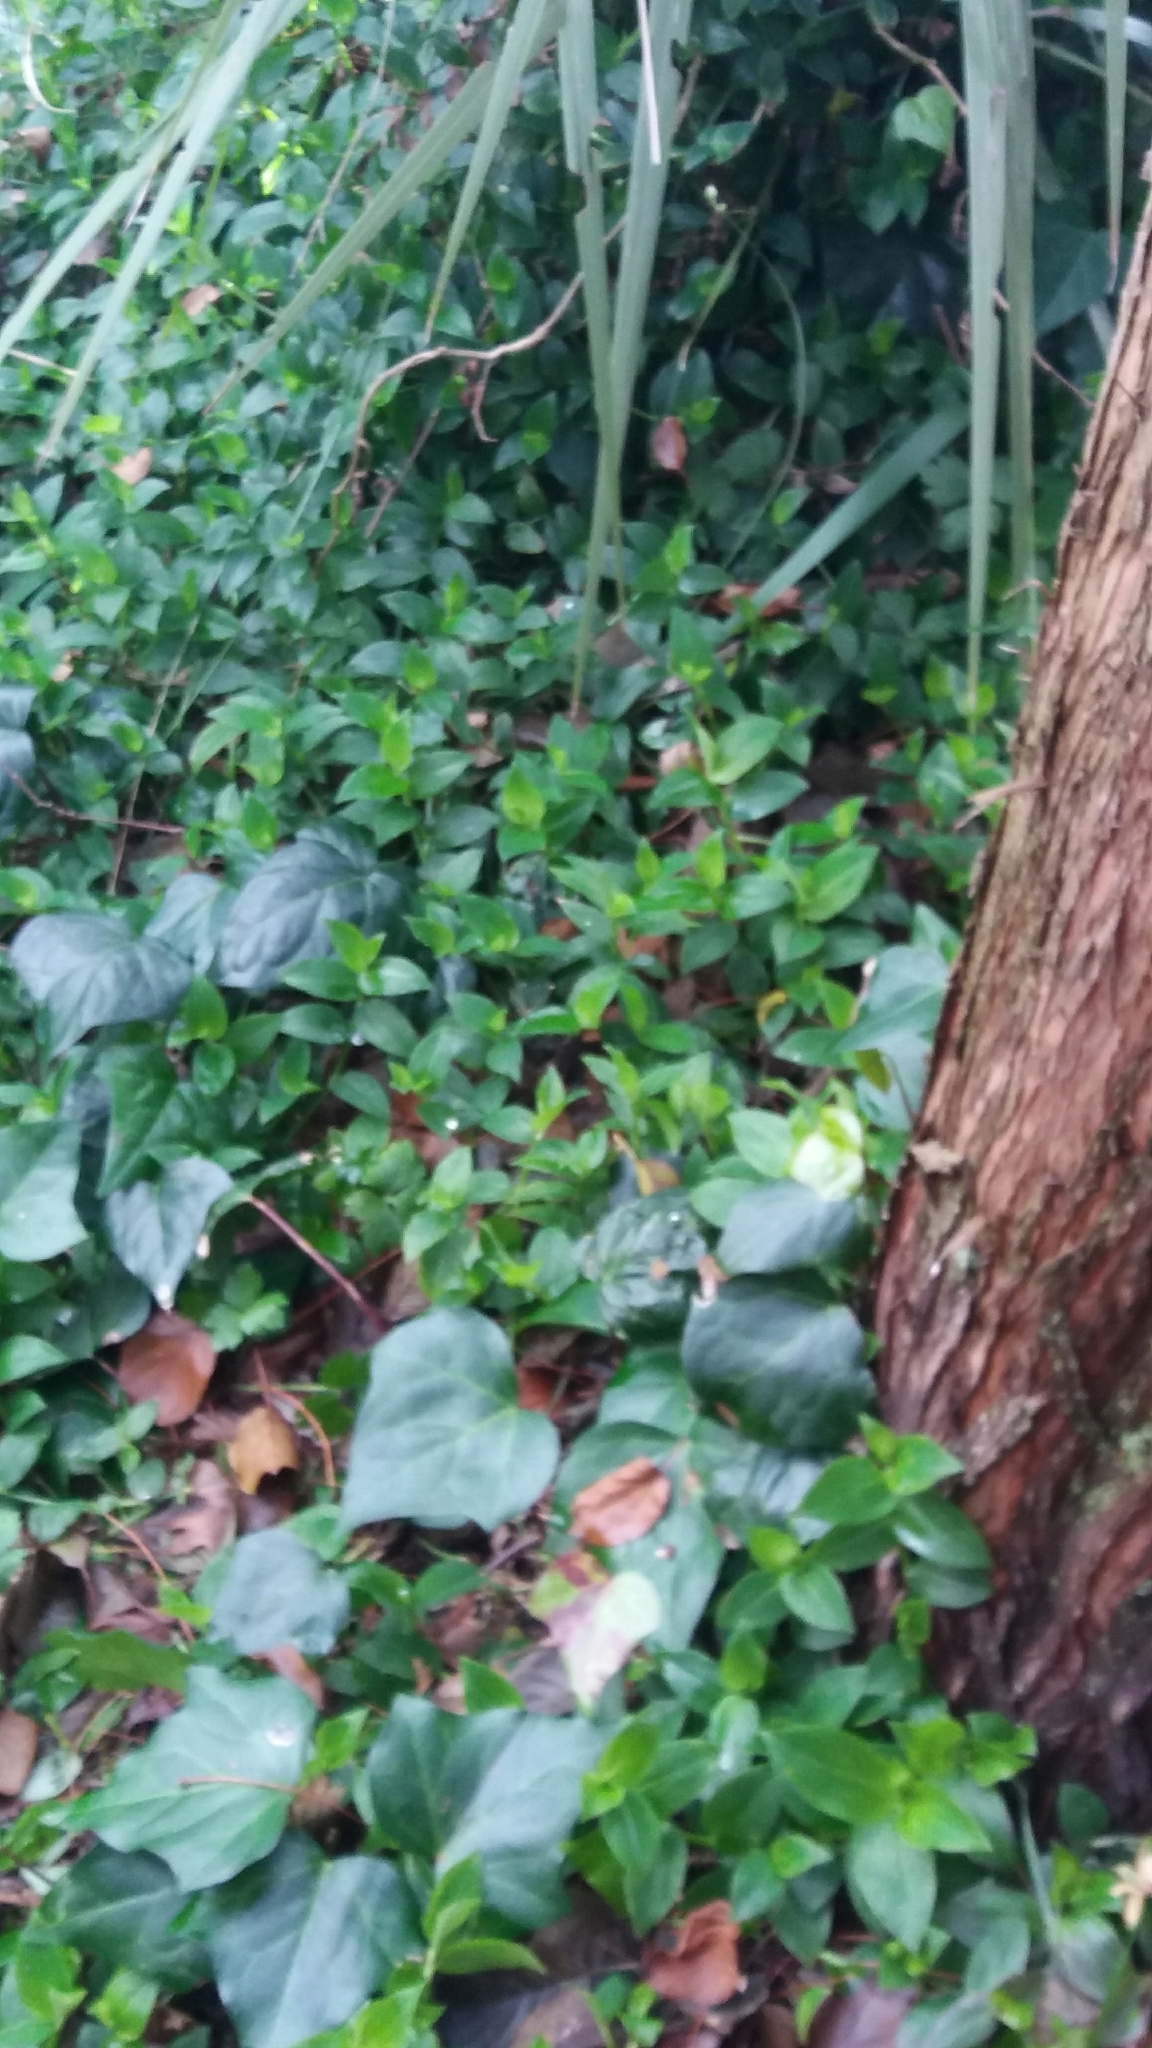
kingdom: Plantae
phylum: Tracheophyta
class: Liliopsida
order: Commelinales
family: Commelinaceae
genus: Tradescantia
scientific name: Tradescantia fluminensis
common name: Wandering-jew
